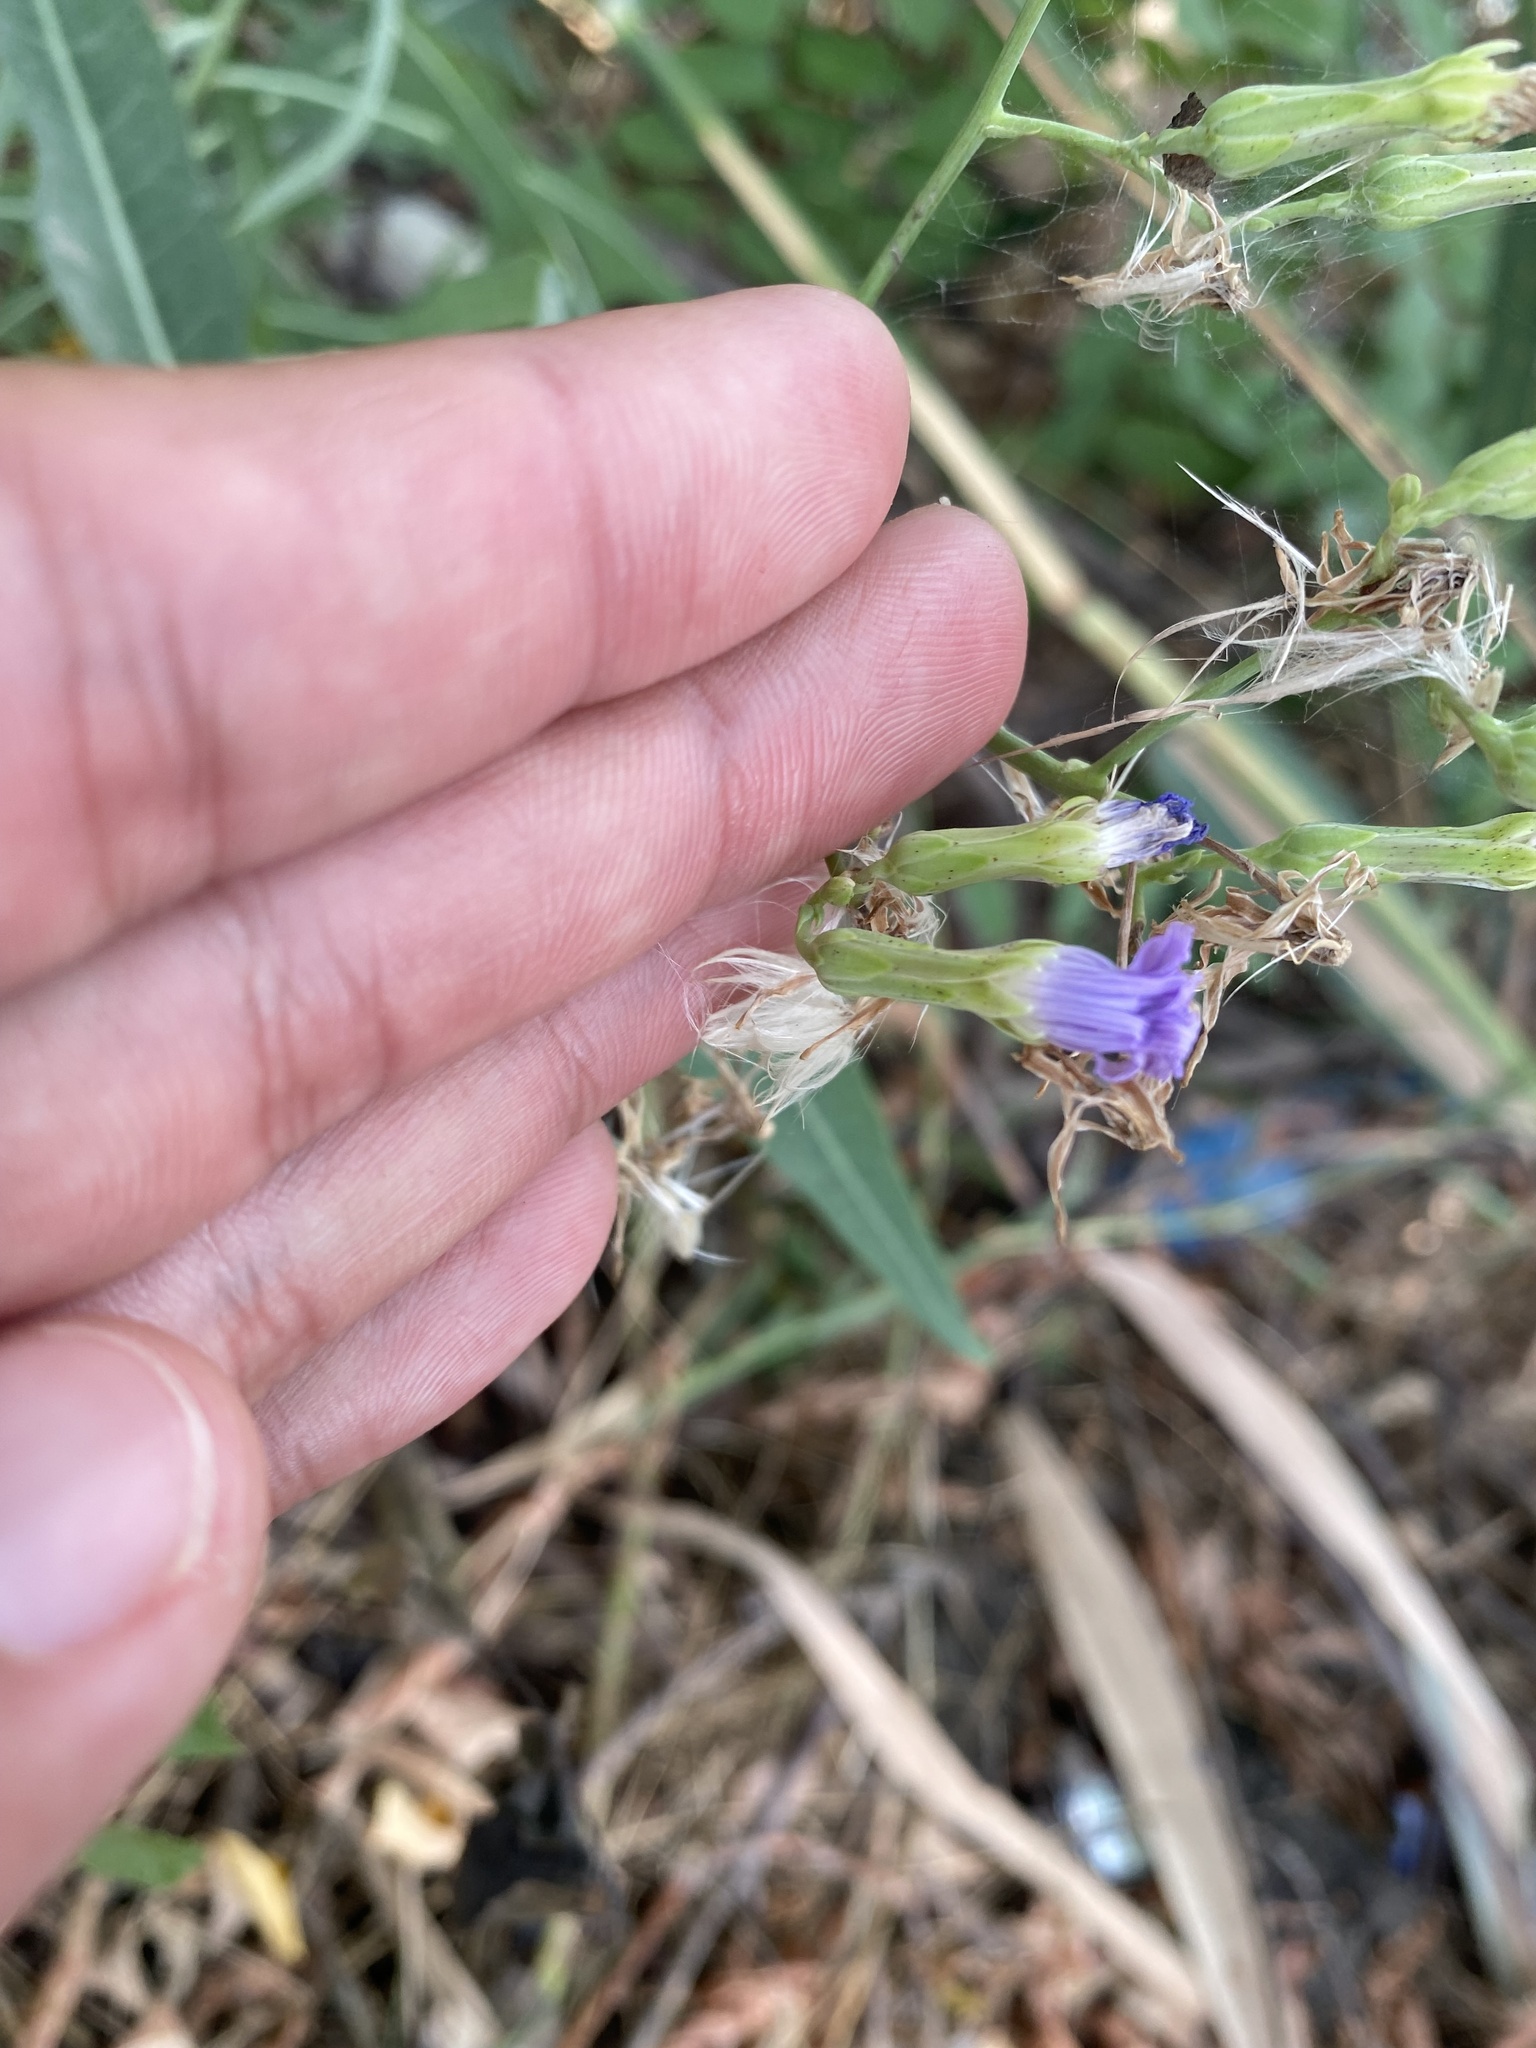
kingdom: Plantae
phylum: Tracheophyta
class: Magnoliopsida
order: Asterales
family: Asteraceae
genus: Lactuca
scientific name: Lactuca tatarica
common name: Blue lettuce
